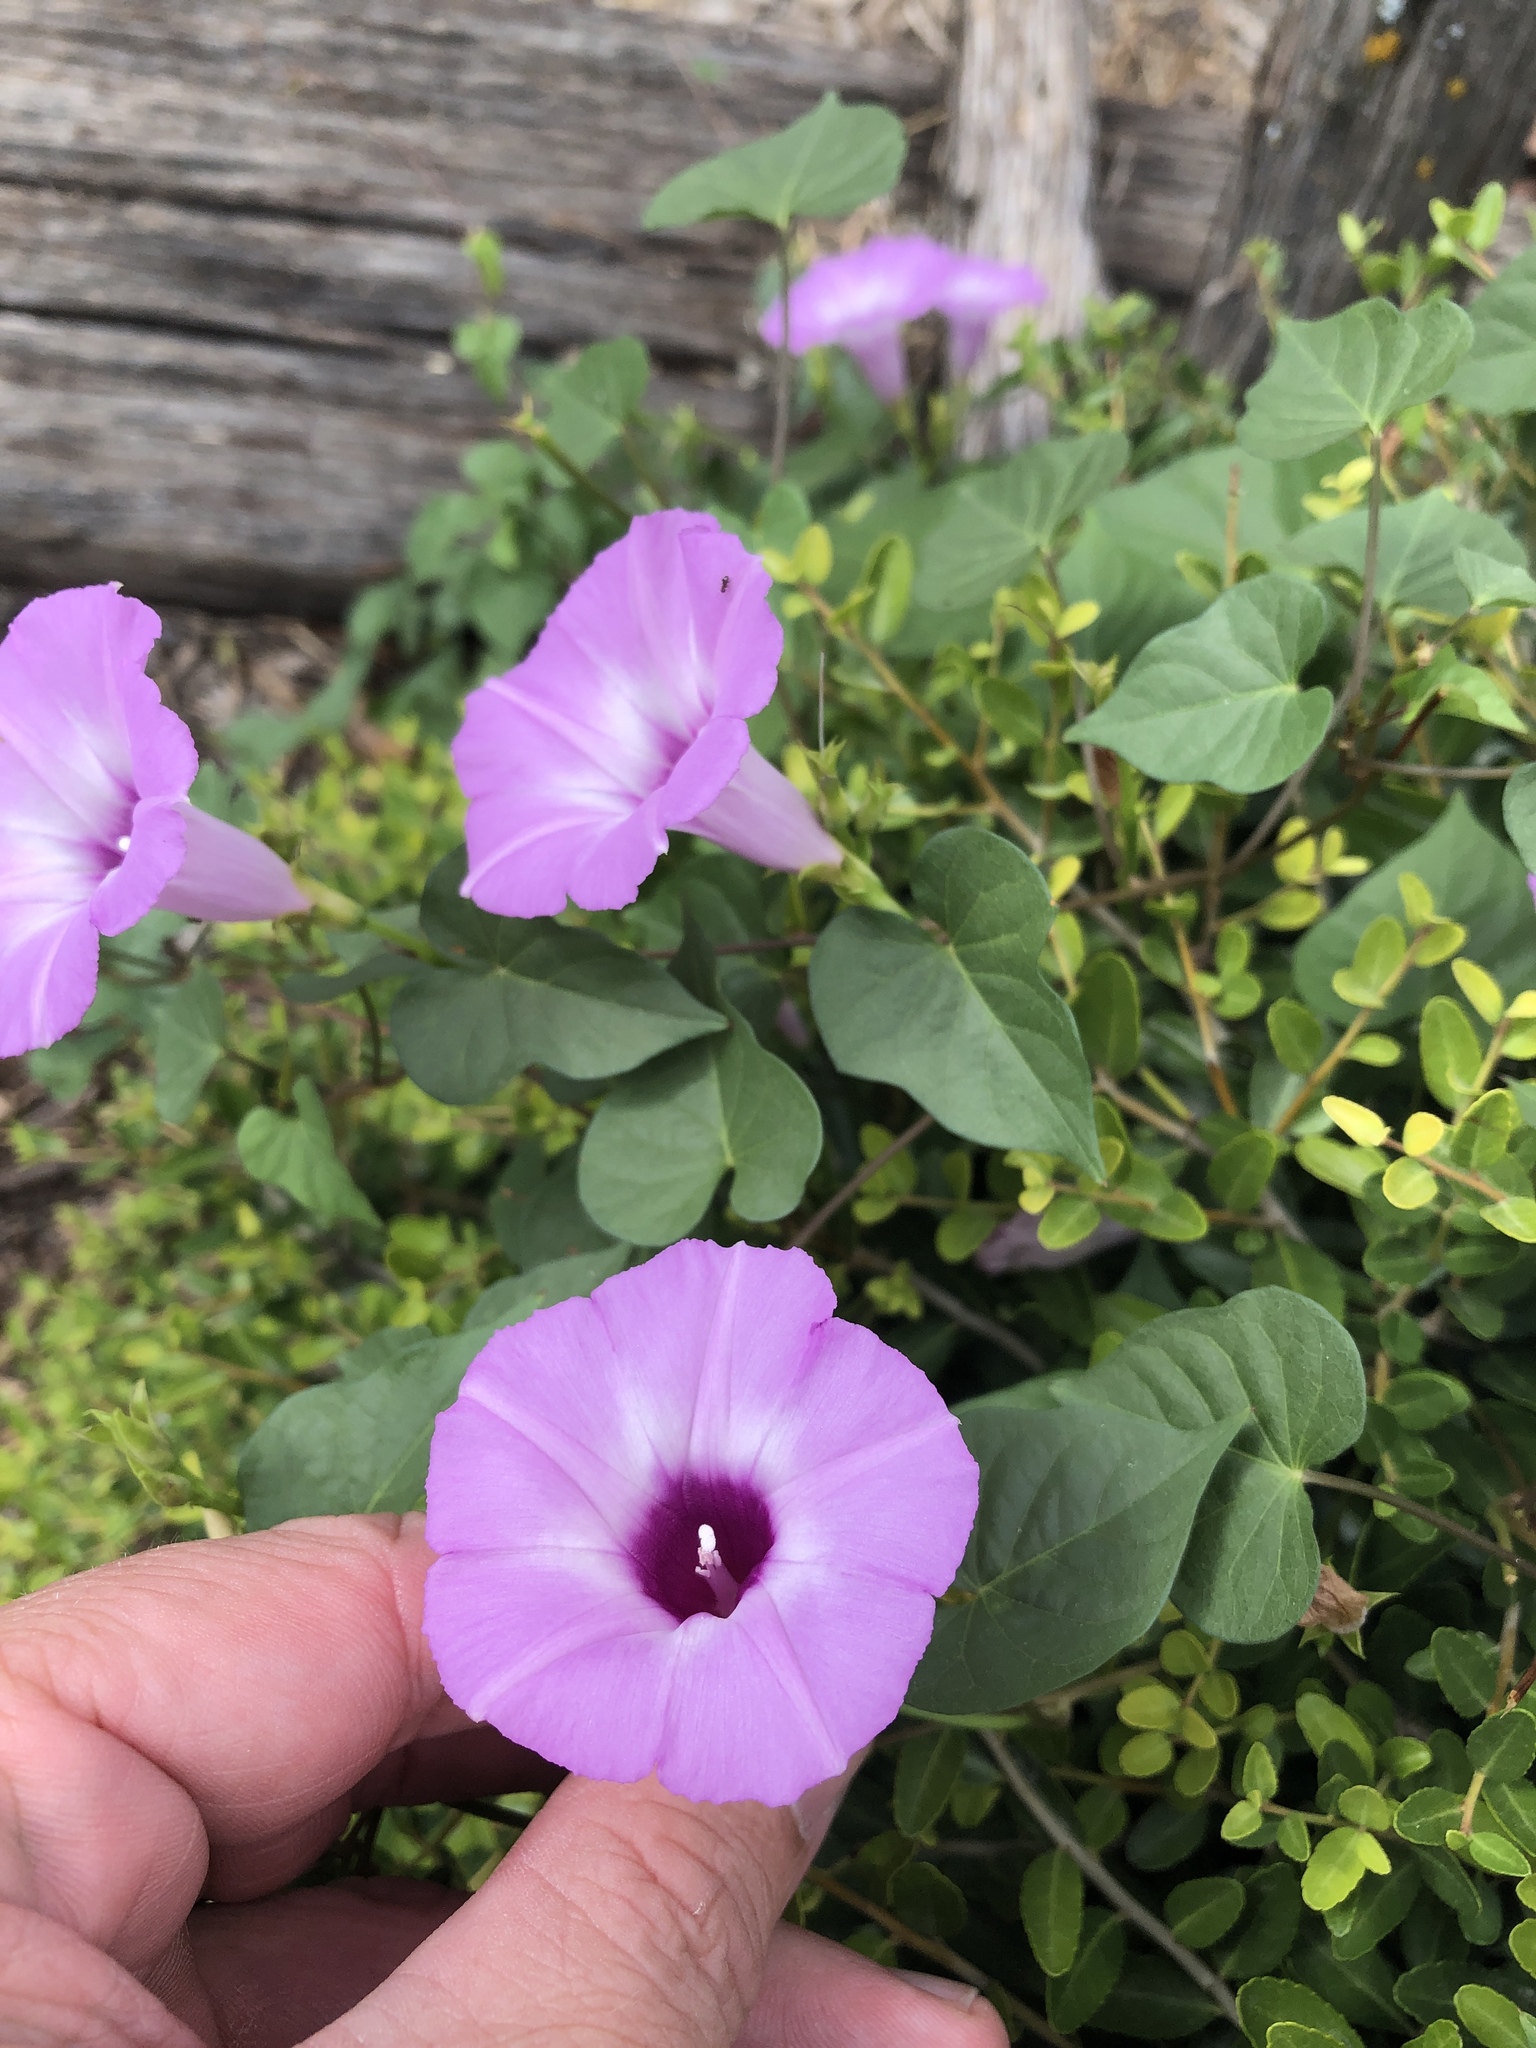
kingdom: Plantae
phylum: Tracheophyta
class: Magnoliopsida
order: Solanales
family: Convolvulaceae
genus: Ipomoea
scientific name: Ipomoea cordatotriloba
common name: Cotton morning glory
